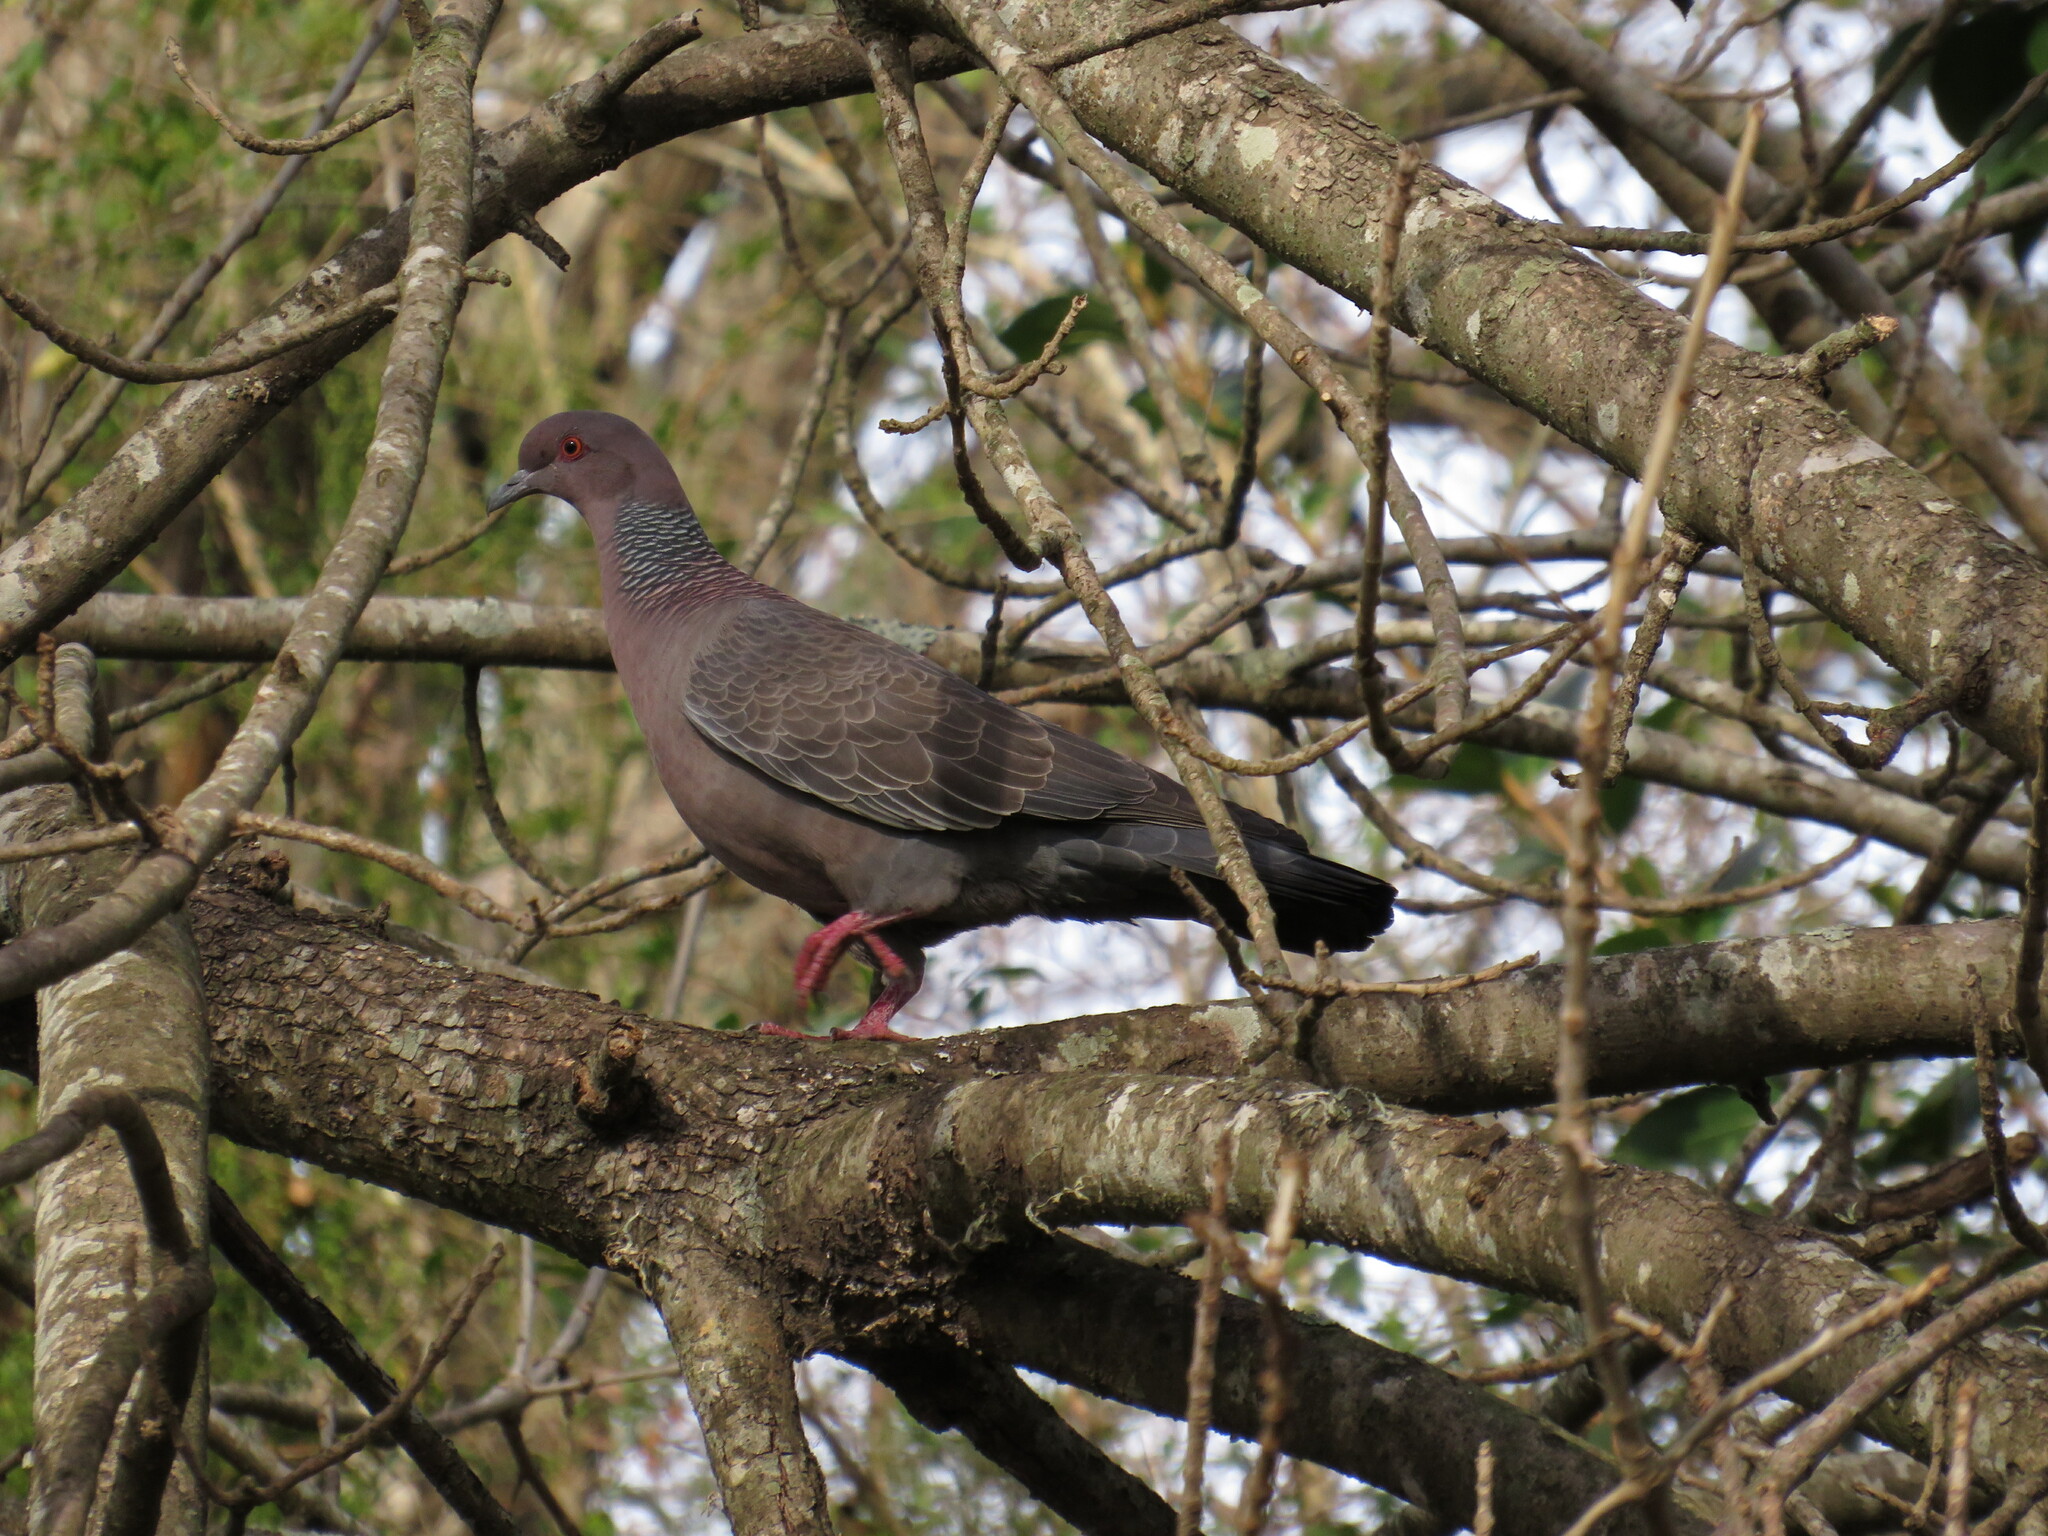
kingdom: Animalia
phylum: Chordata
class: Aves
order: Columbiformes
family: Columbidae
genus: Patagioenas
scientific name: Patagioenas picazuro
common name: Picazuro pigeon
